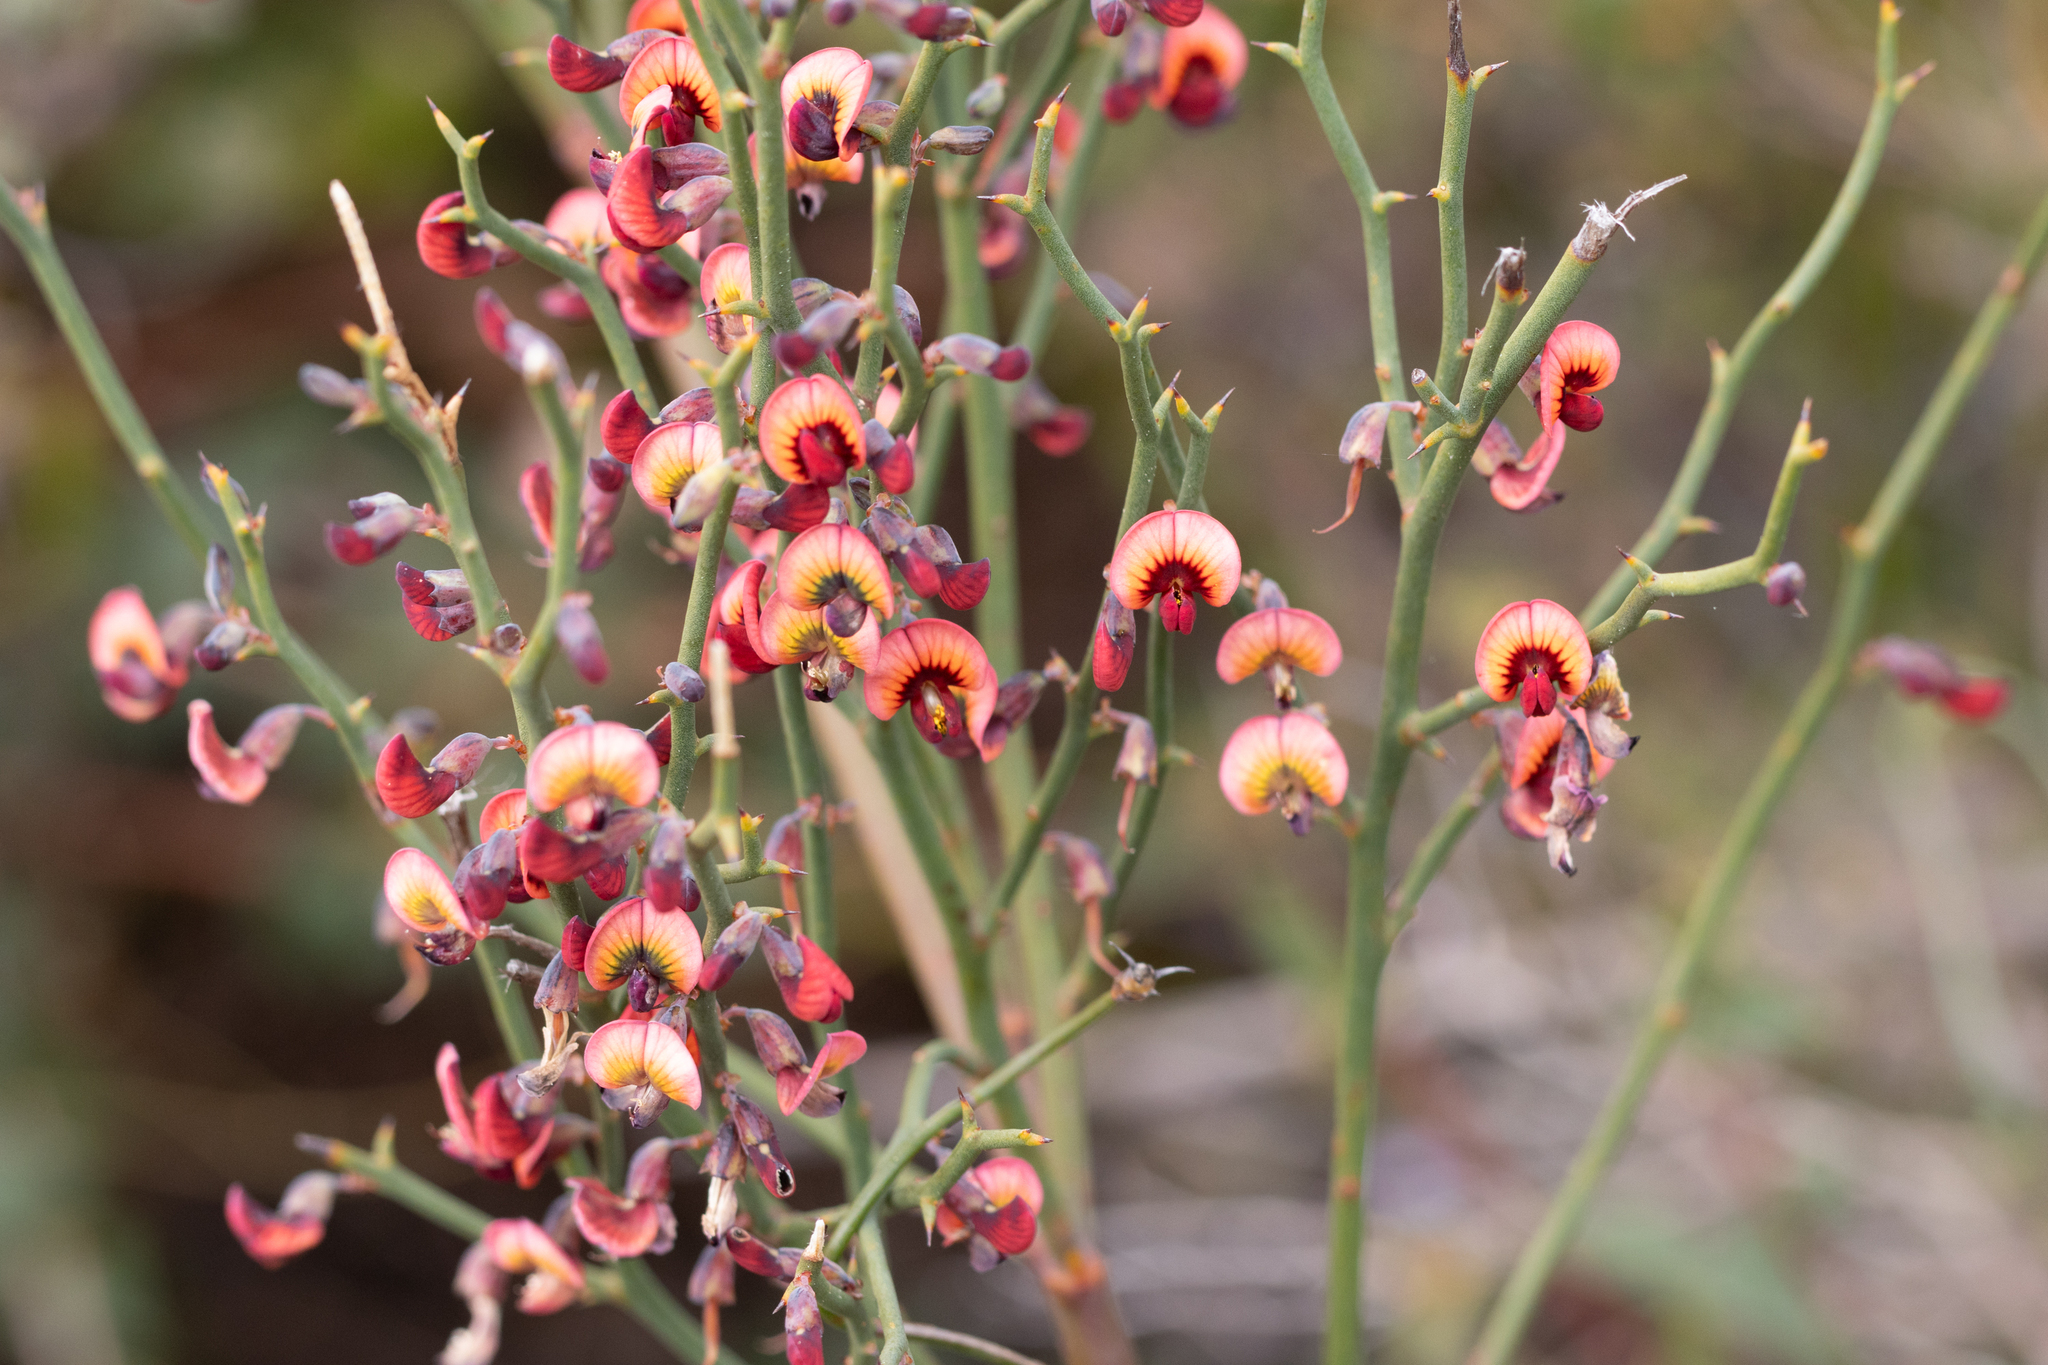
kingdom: Plantae
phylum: Tracheophyta
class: Magnoliopsida
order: Fabales
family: Fabaceae
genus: Daviesia
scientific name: Daviesia brevifolia
